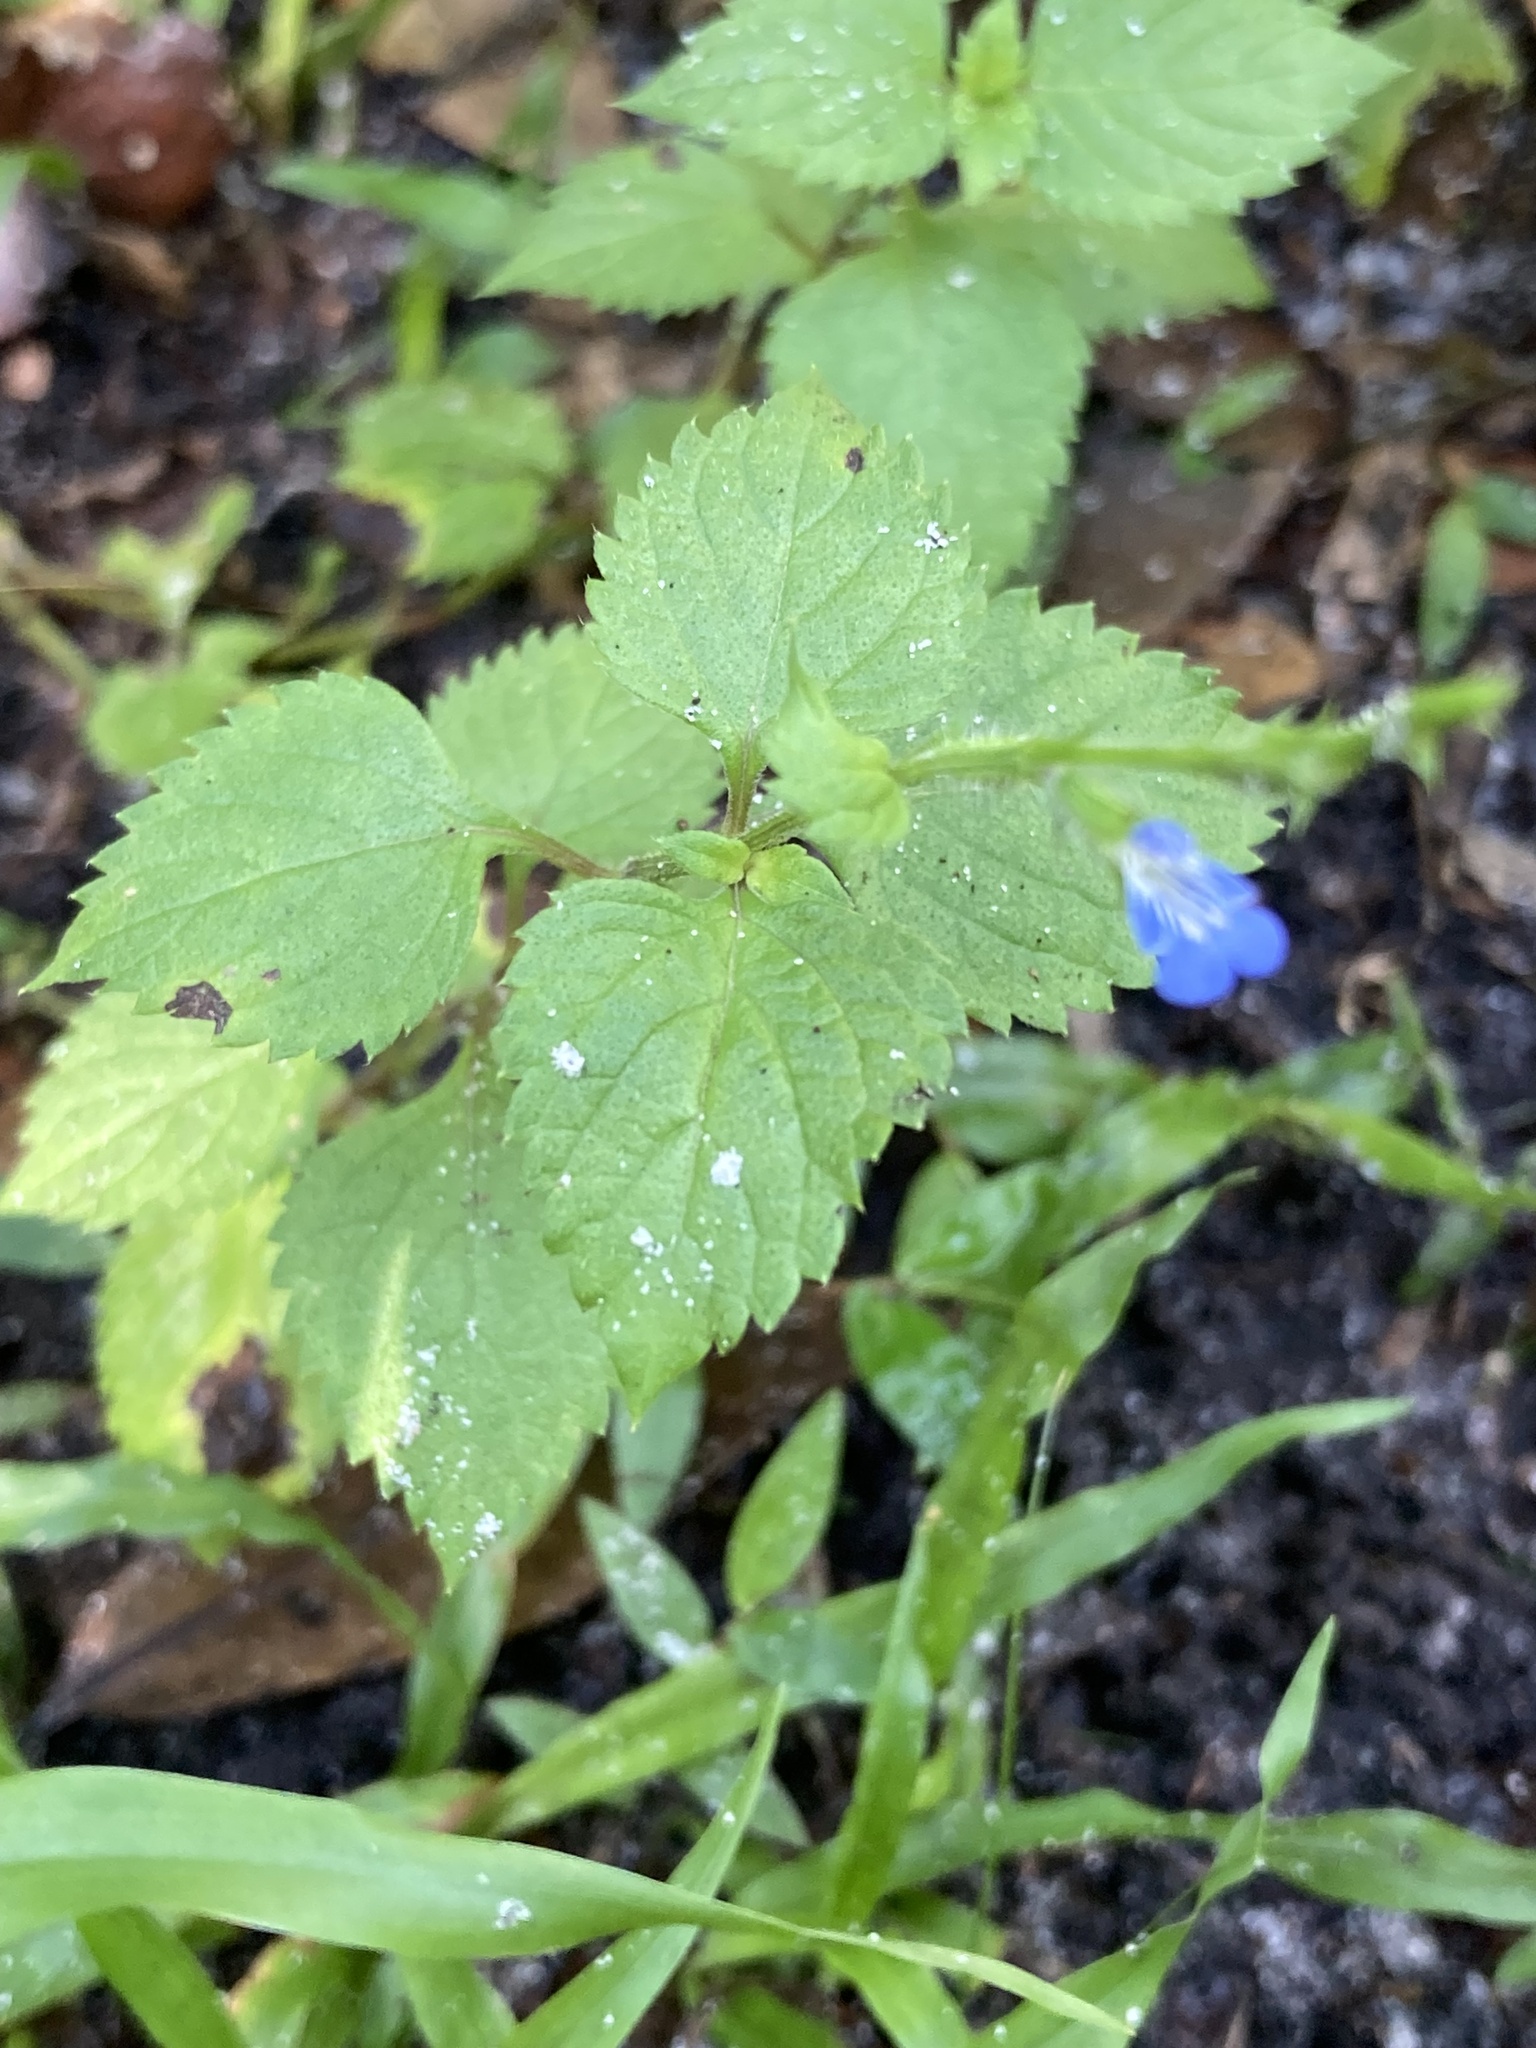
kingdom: Plantae
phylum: Tracheophyta
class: Magnoliopsida
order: Lamiales
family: Lamiaceae
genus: Salvia
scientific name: Salvia misella
